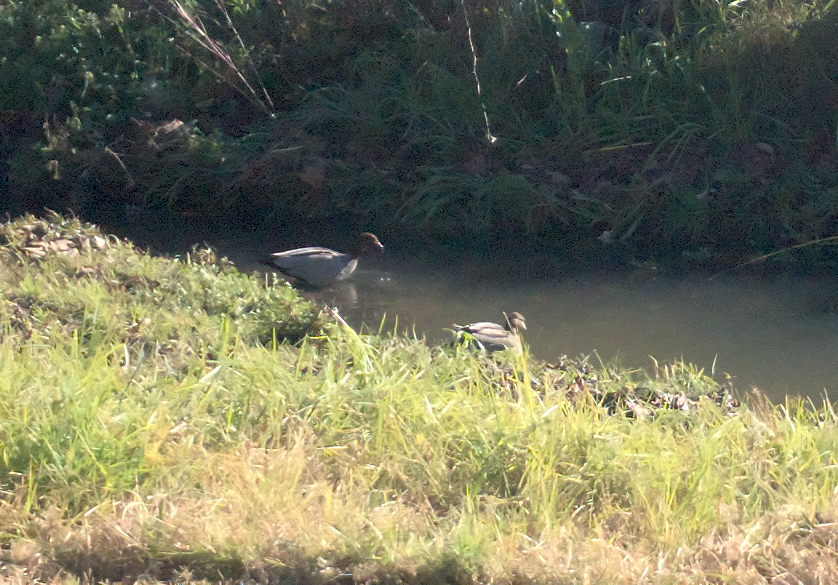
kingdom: Animalia
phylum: Chordata
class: Aves
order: Anseriformes
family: Anatidae
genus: Chenonetta
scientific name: Chenonetta jubata
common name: Maned duck
